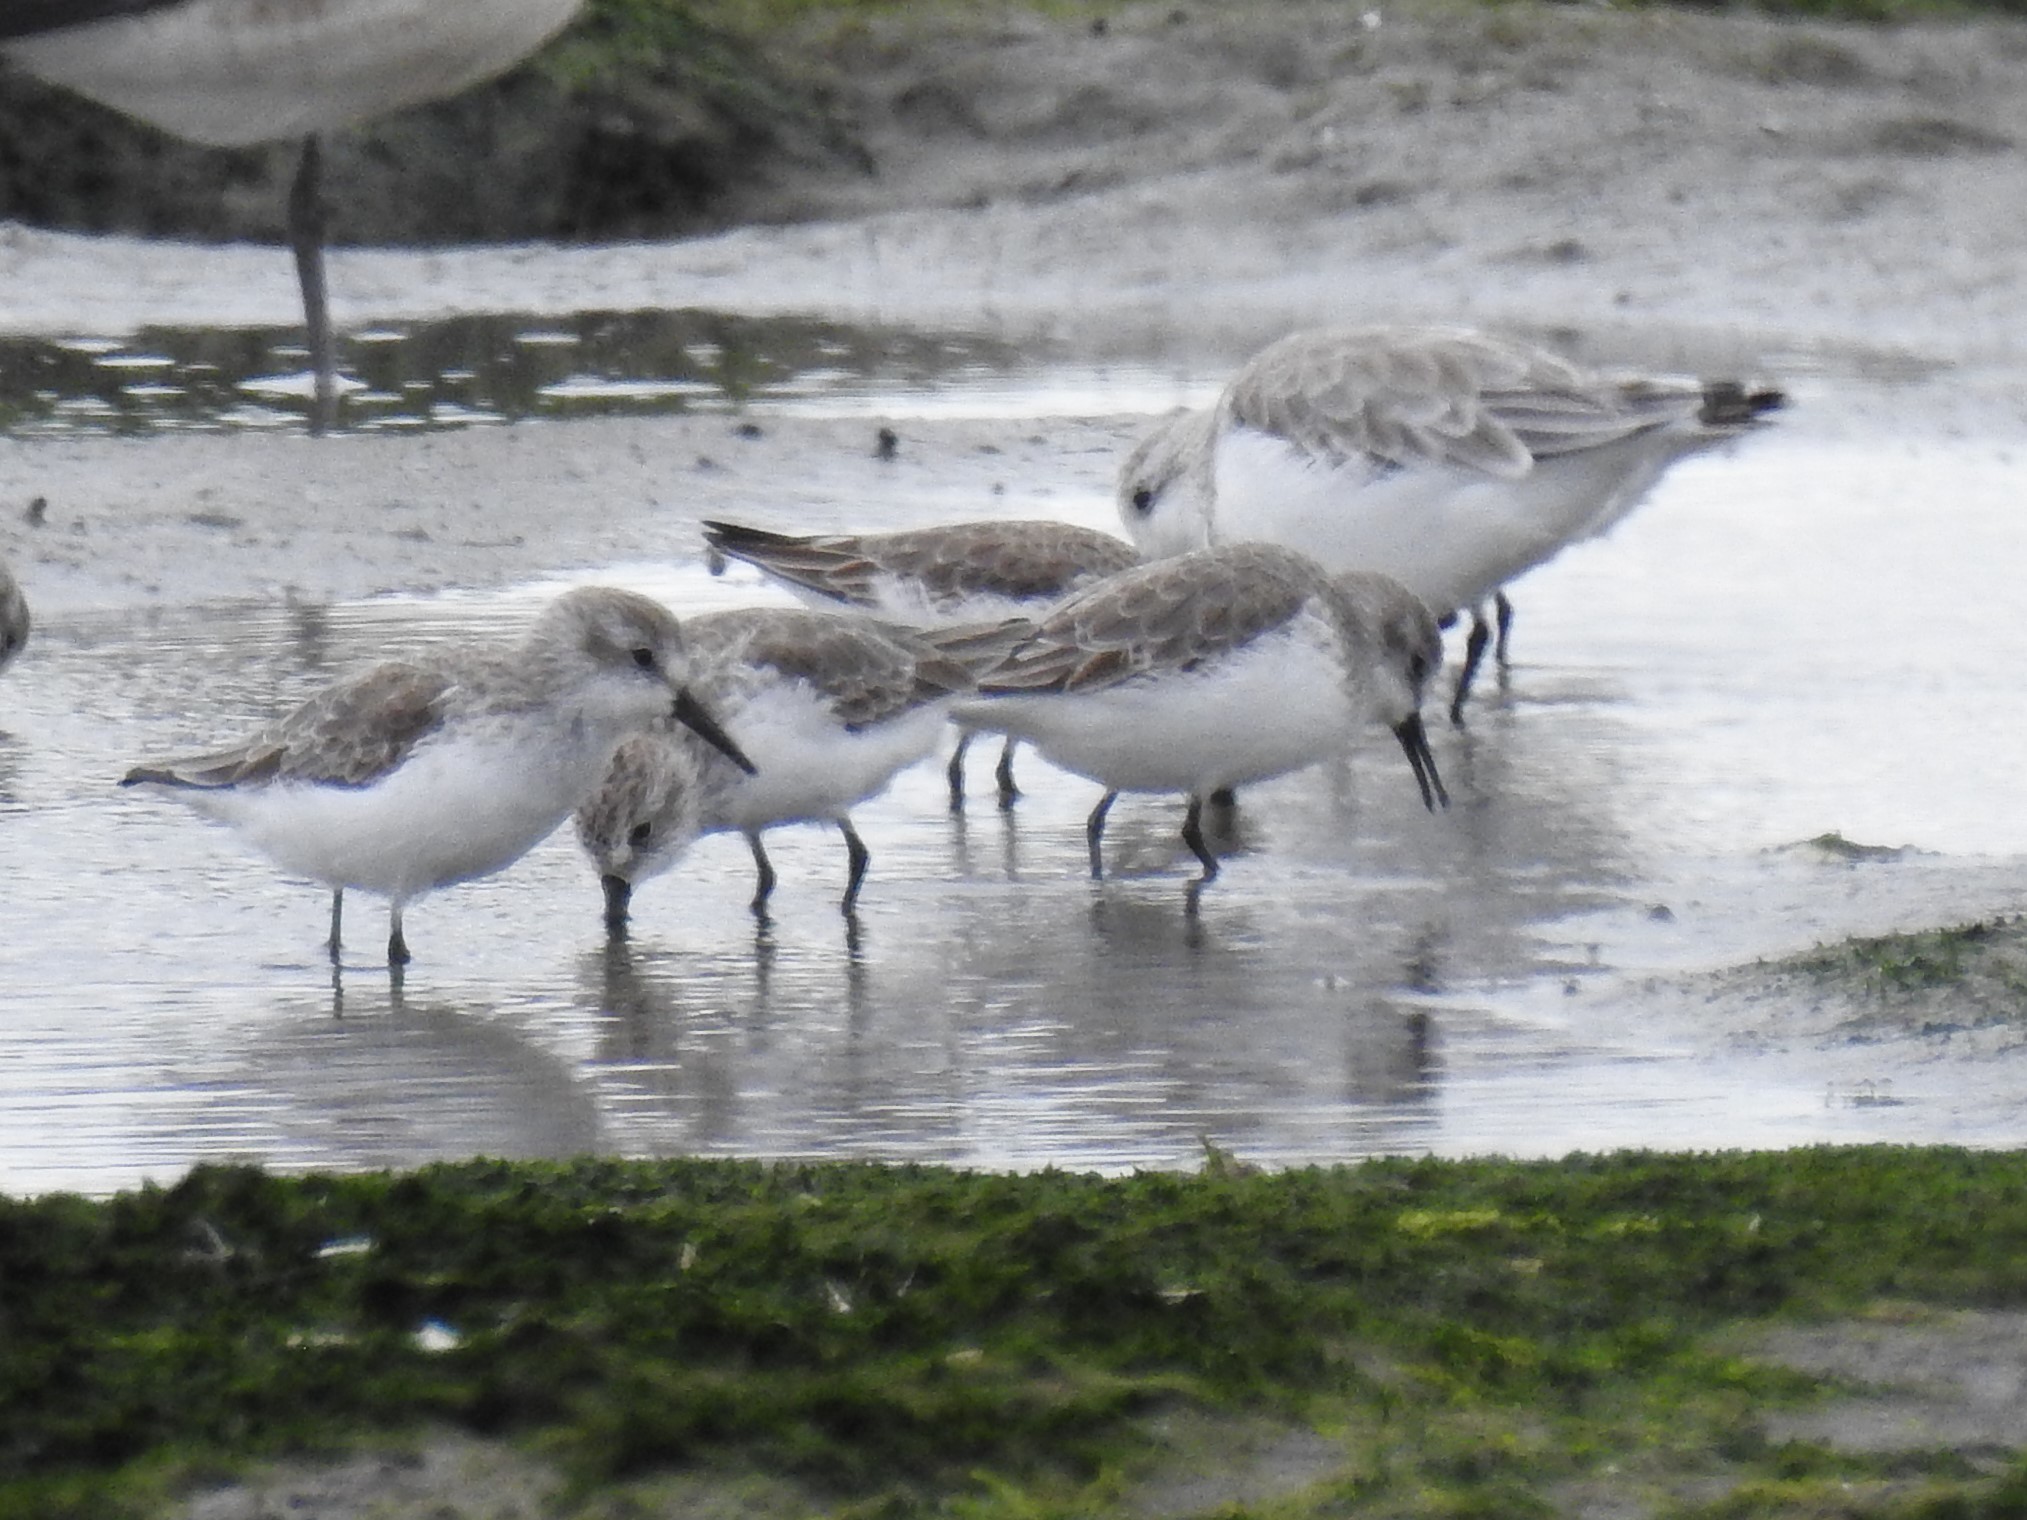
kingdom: Animalia
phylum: Chordata
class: Aves
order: Charadriiformes
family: Scolopacidae
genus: Calidris
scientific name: Calidris mauri
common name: Western sandpiper
